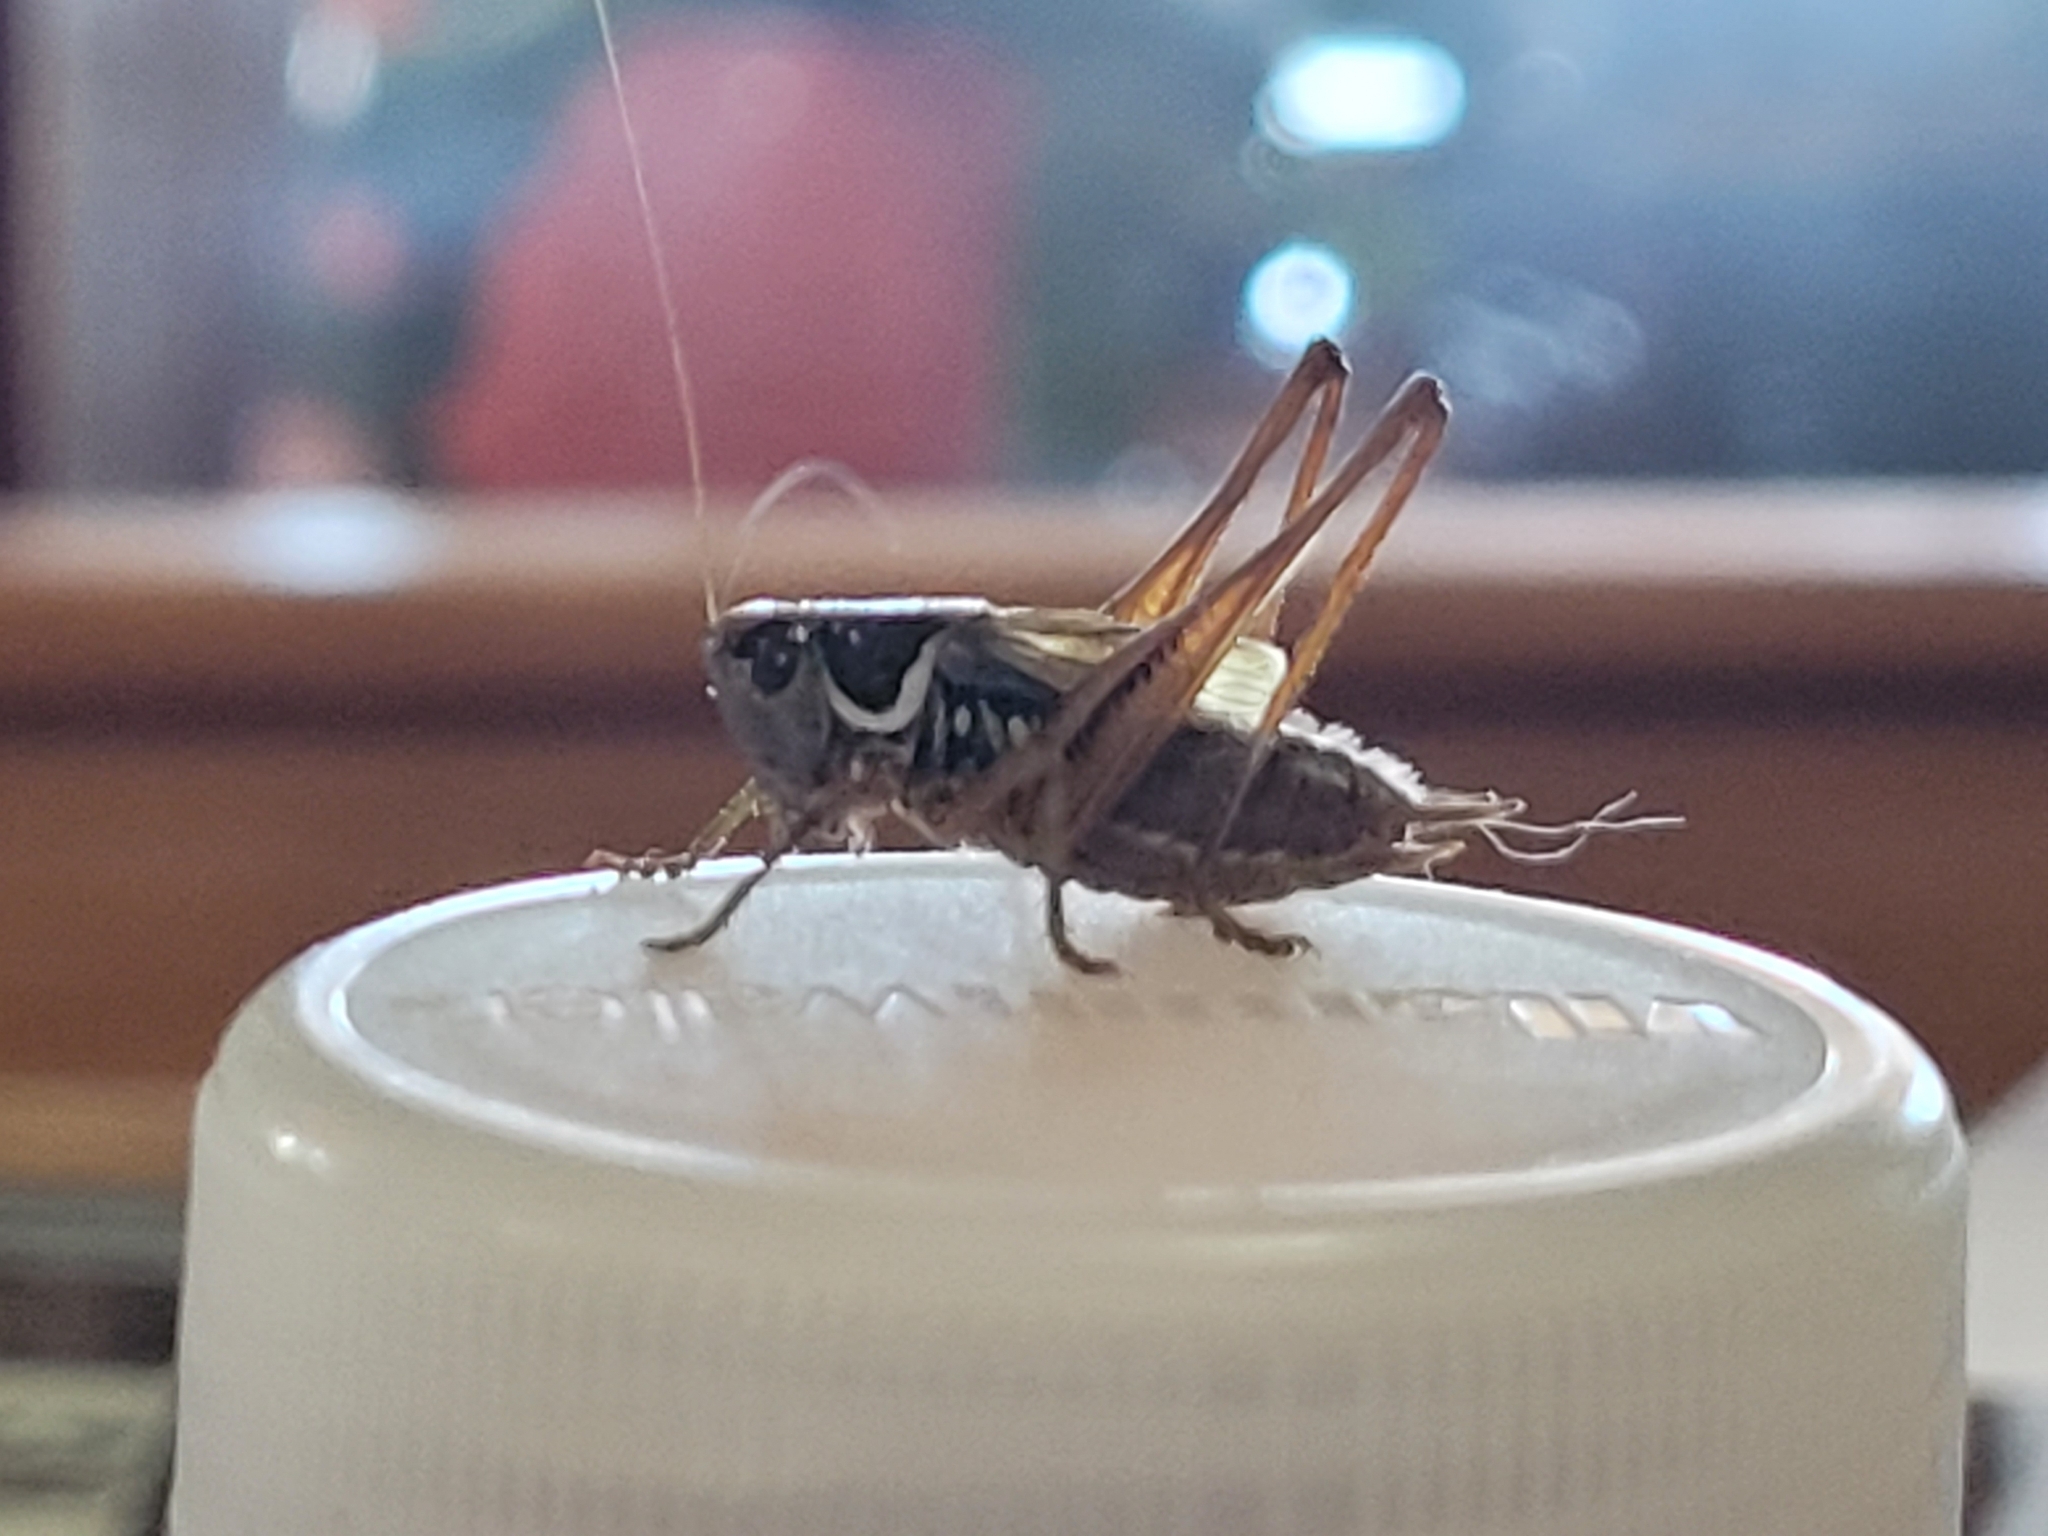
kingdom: Animalia
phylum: Arthropoda
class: Insecta
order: Orthoptera
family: Tettigoniidae
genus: Roeseliana
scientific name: Roeseliana roeselii
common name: Roesel's bush cricket
